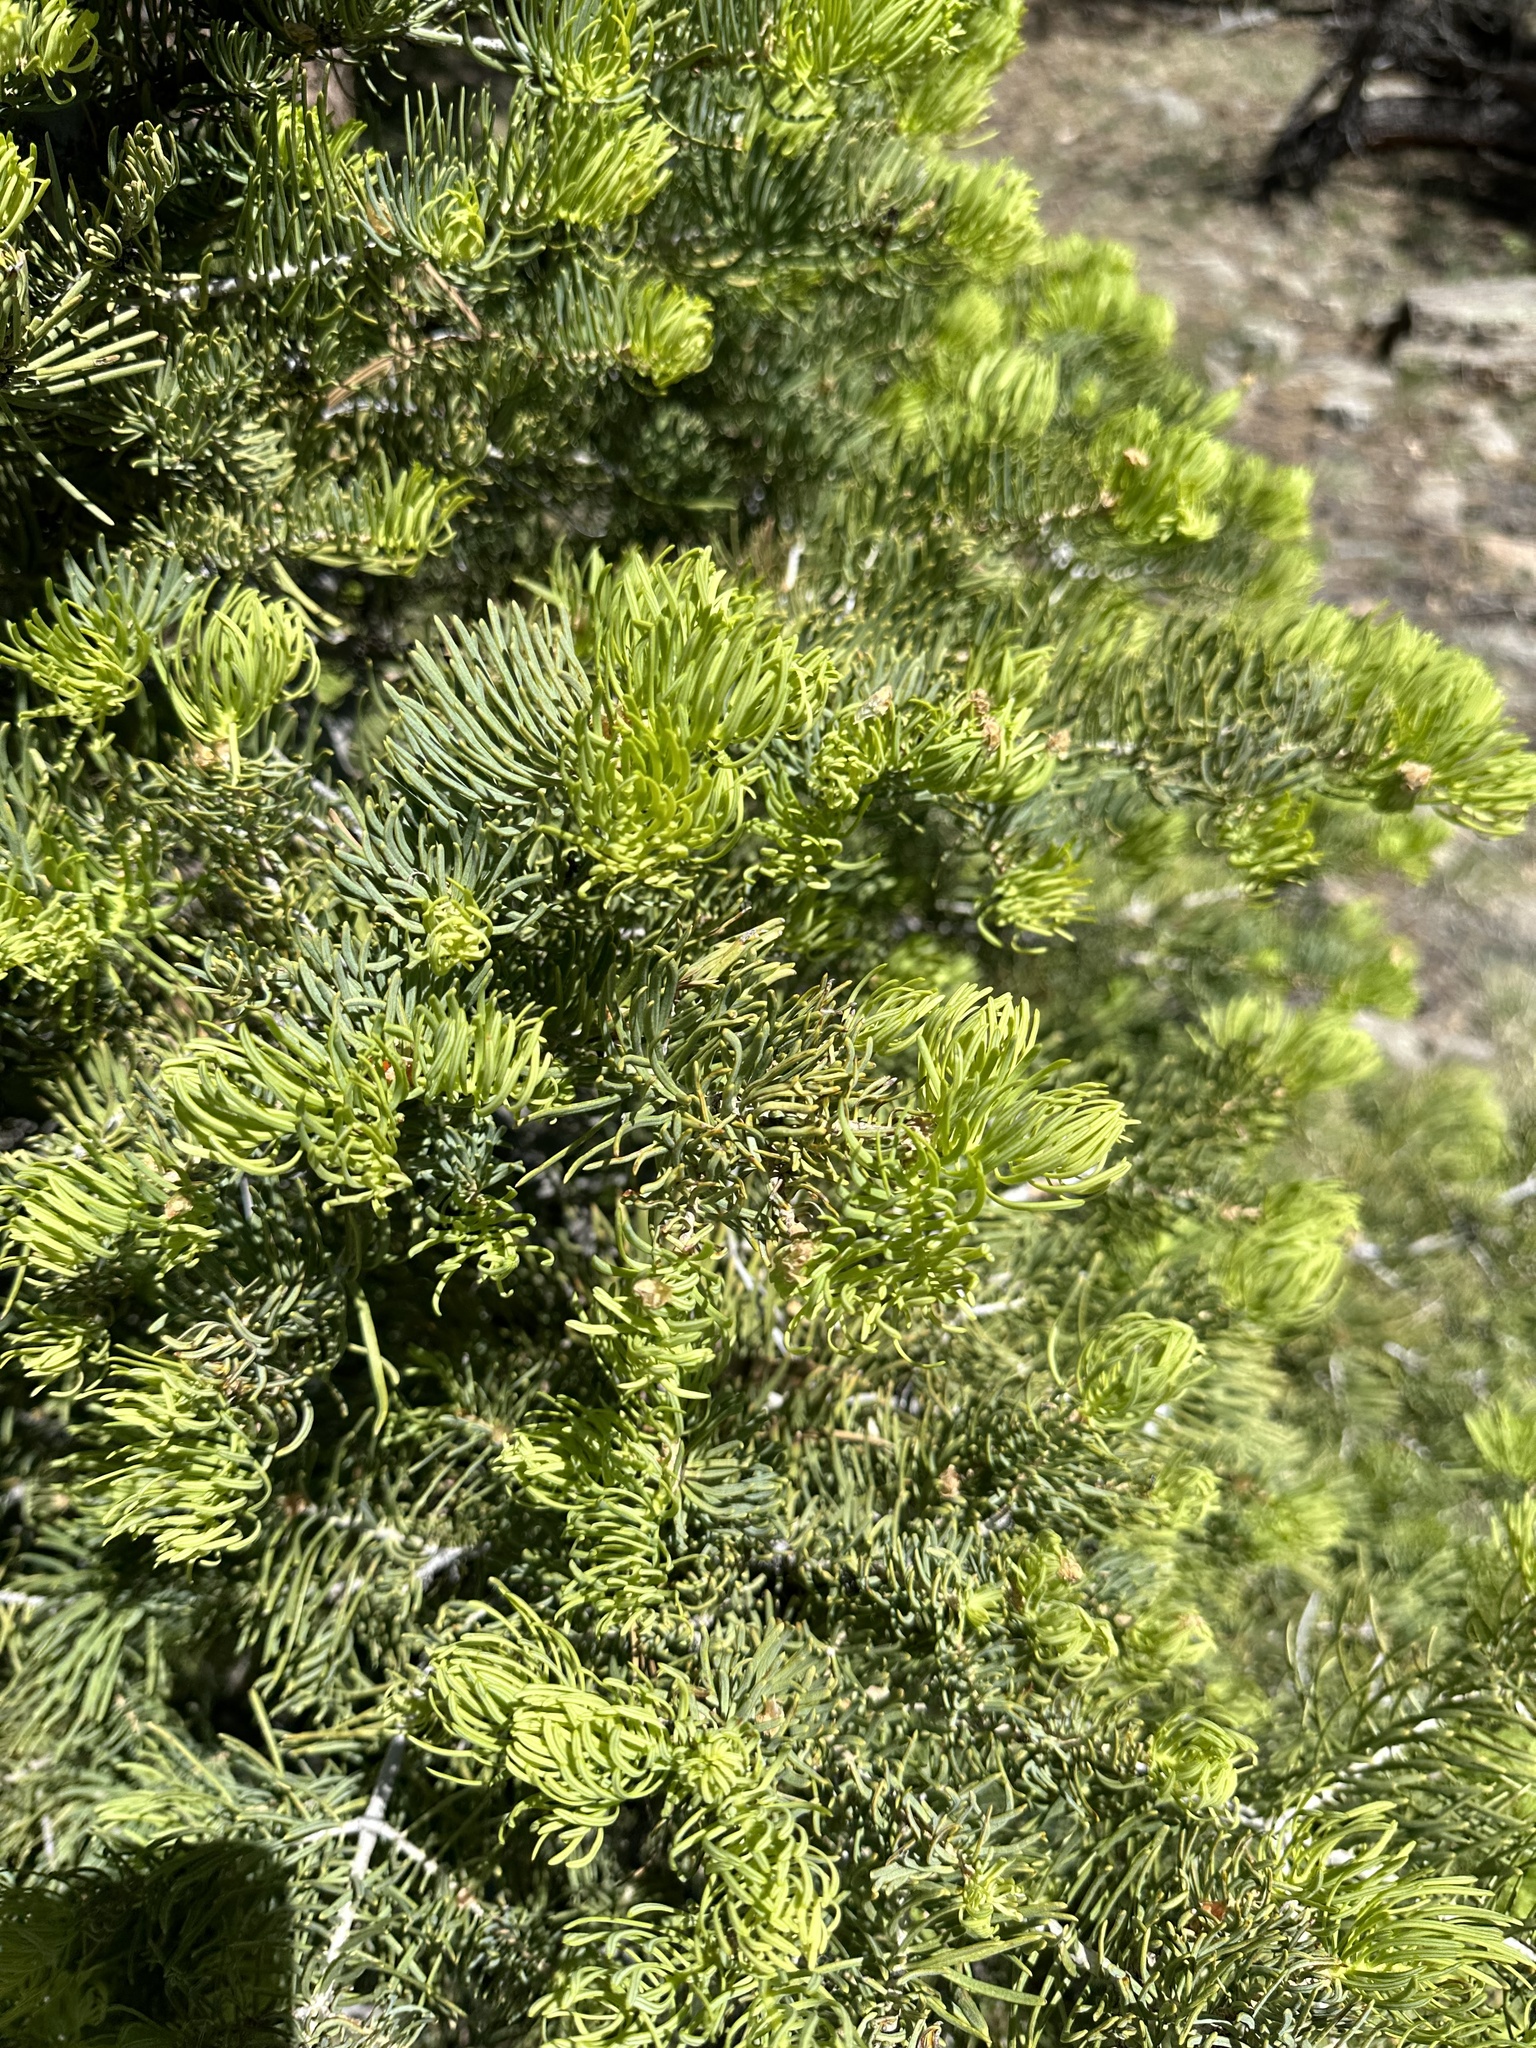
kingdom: Plantae
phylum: Tracheophyta
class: Pinopsida
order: Pinales
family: Pinaceae
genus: Abies
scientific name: Abies concolor
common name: Colorado fir
